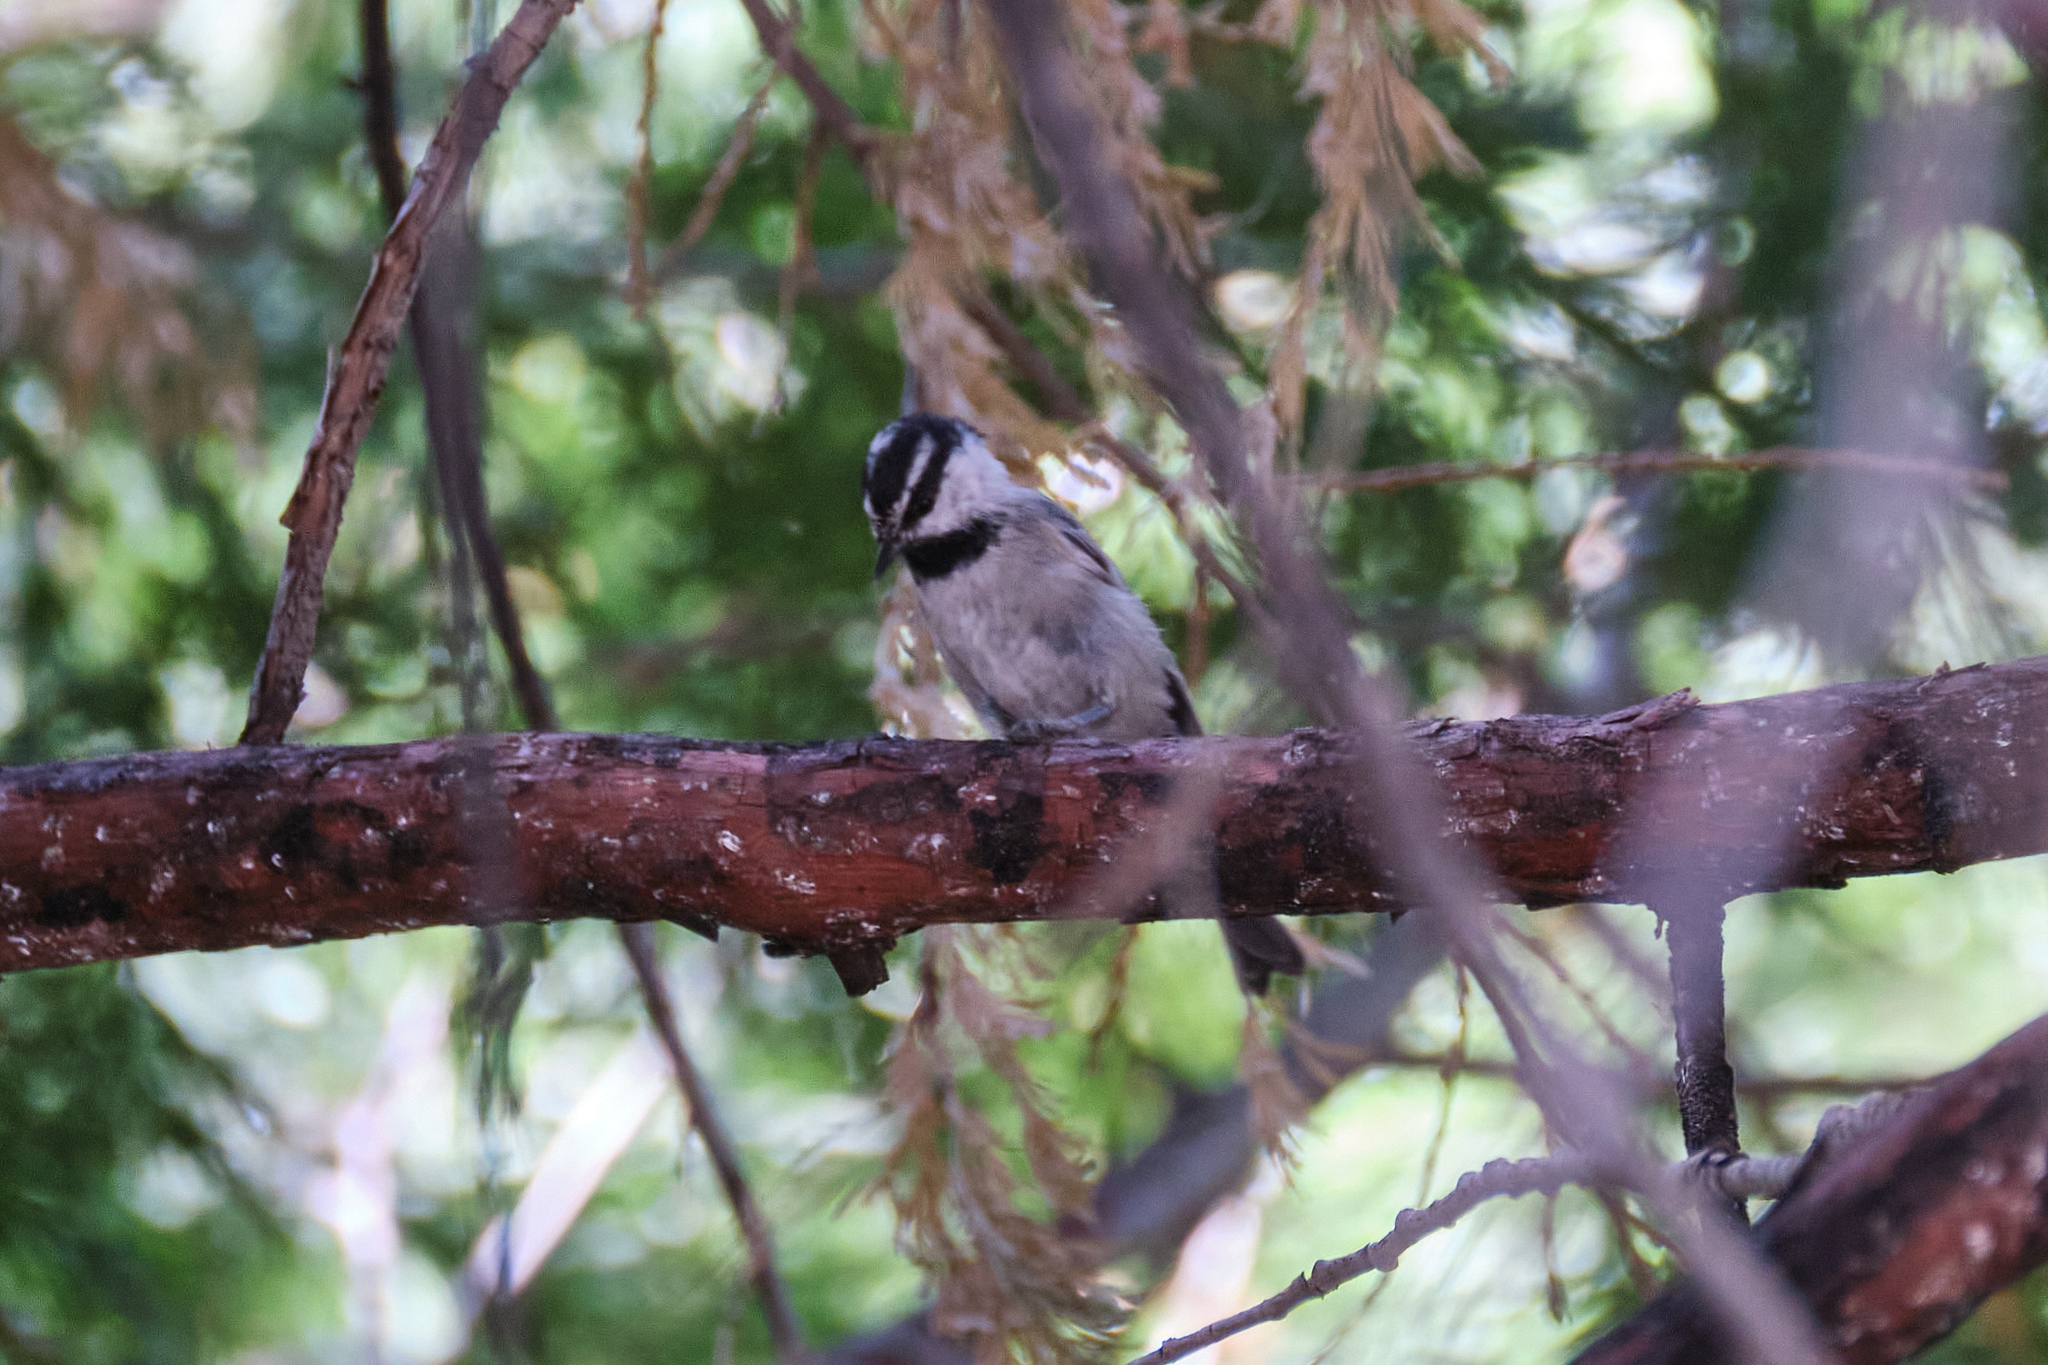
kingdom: Animalia
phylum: Chordata
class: Aves
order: Passeriformes
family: Paridae
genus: Poecile
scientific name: Poecile gambeli
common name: Mountain chickadee
